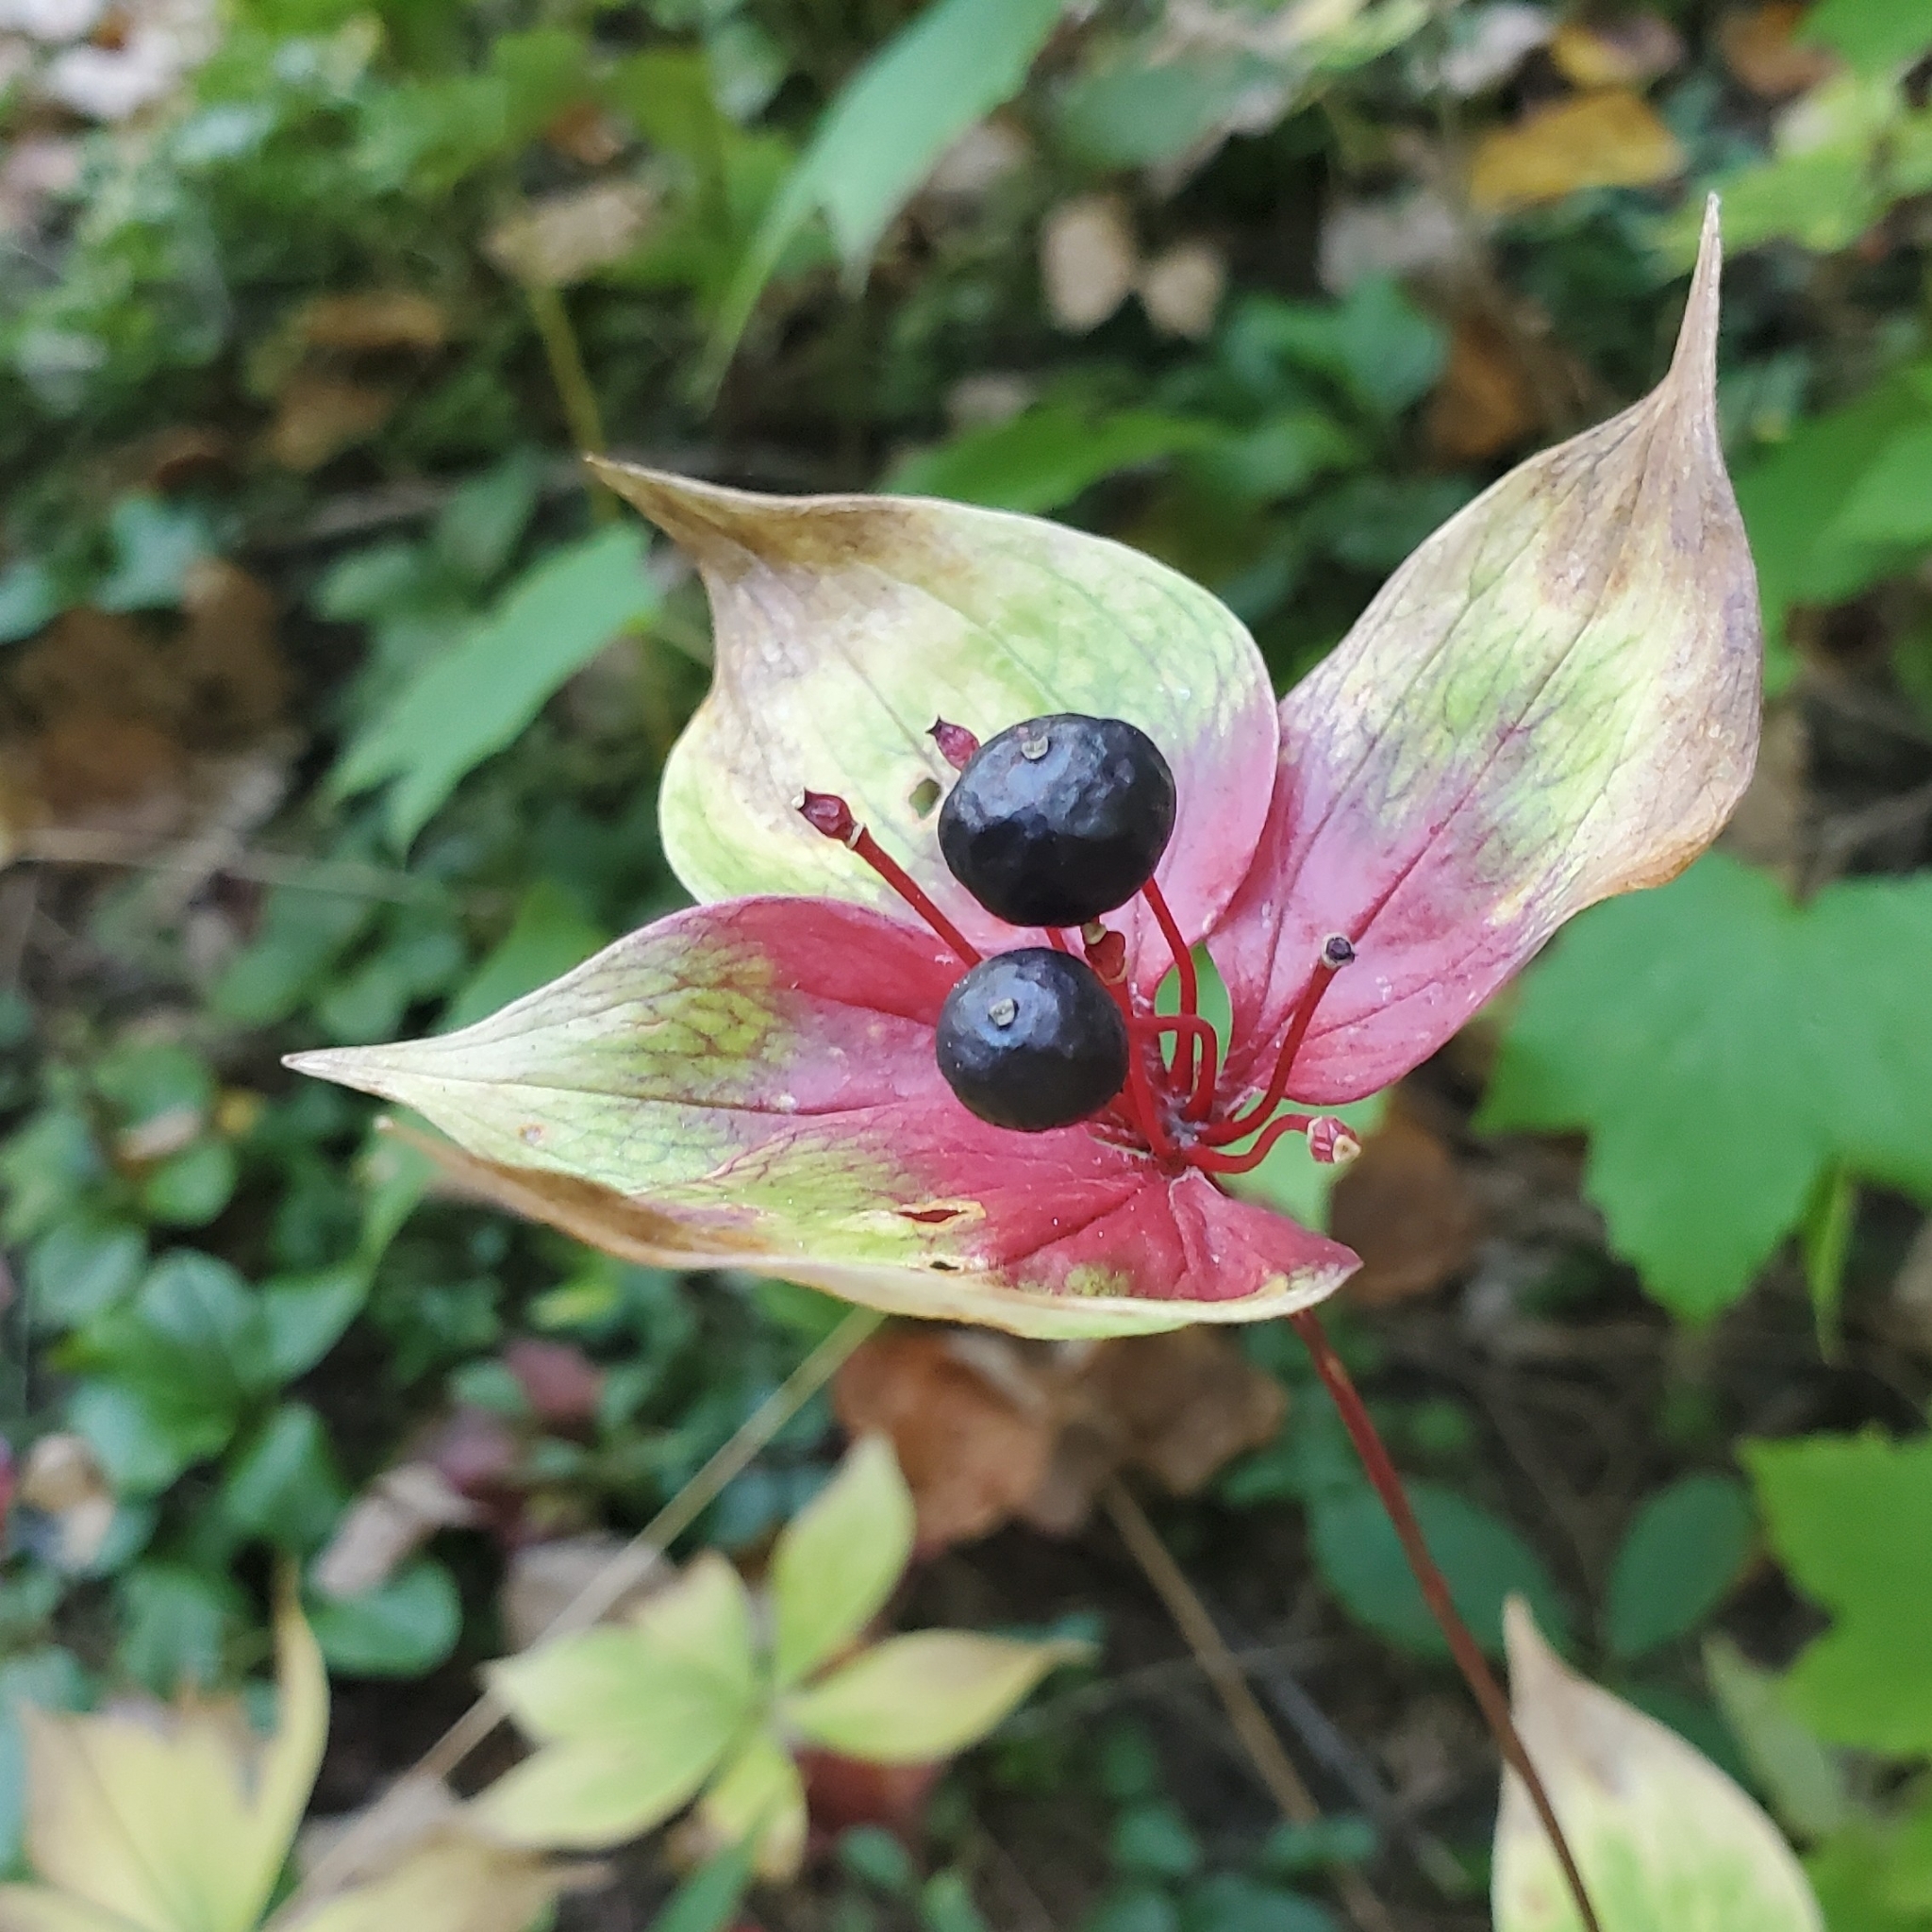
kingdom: Plantae
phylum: Tracheophyta
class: Liliopsida
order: Liliales
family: Liliaceae
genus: Medeola
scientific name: Medeola virginiana
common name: Indian cucumber-root
